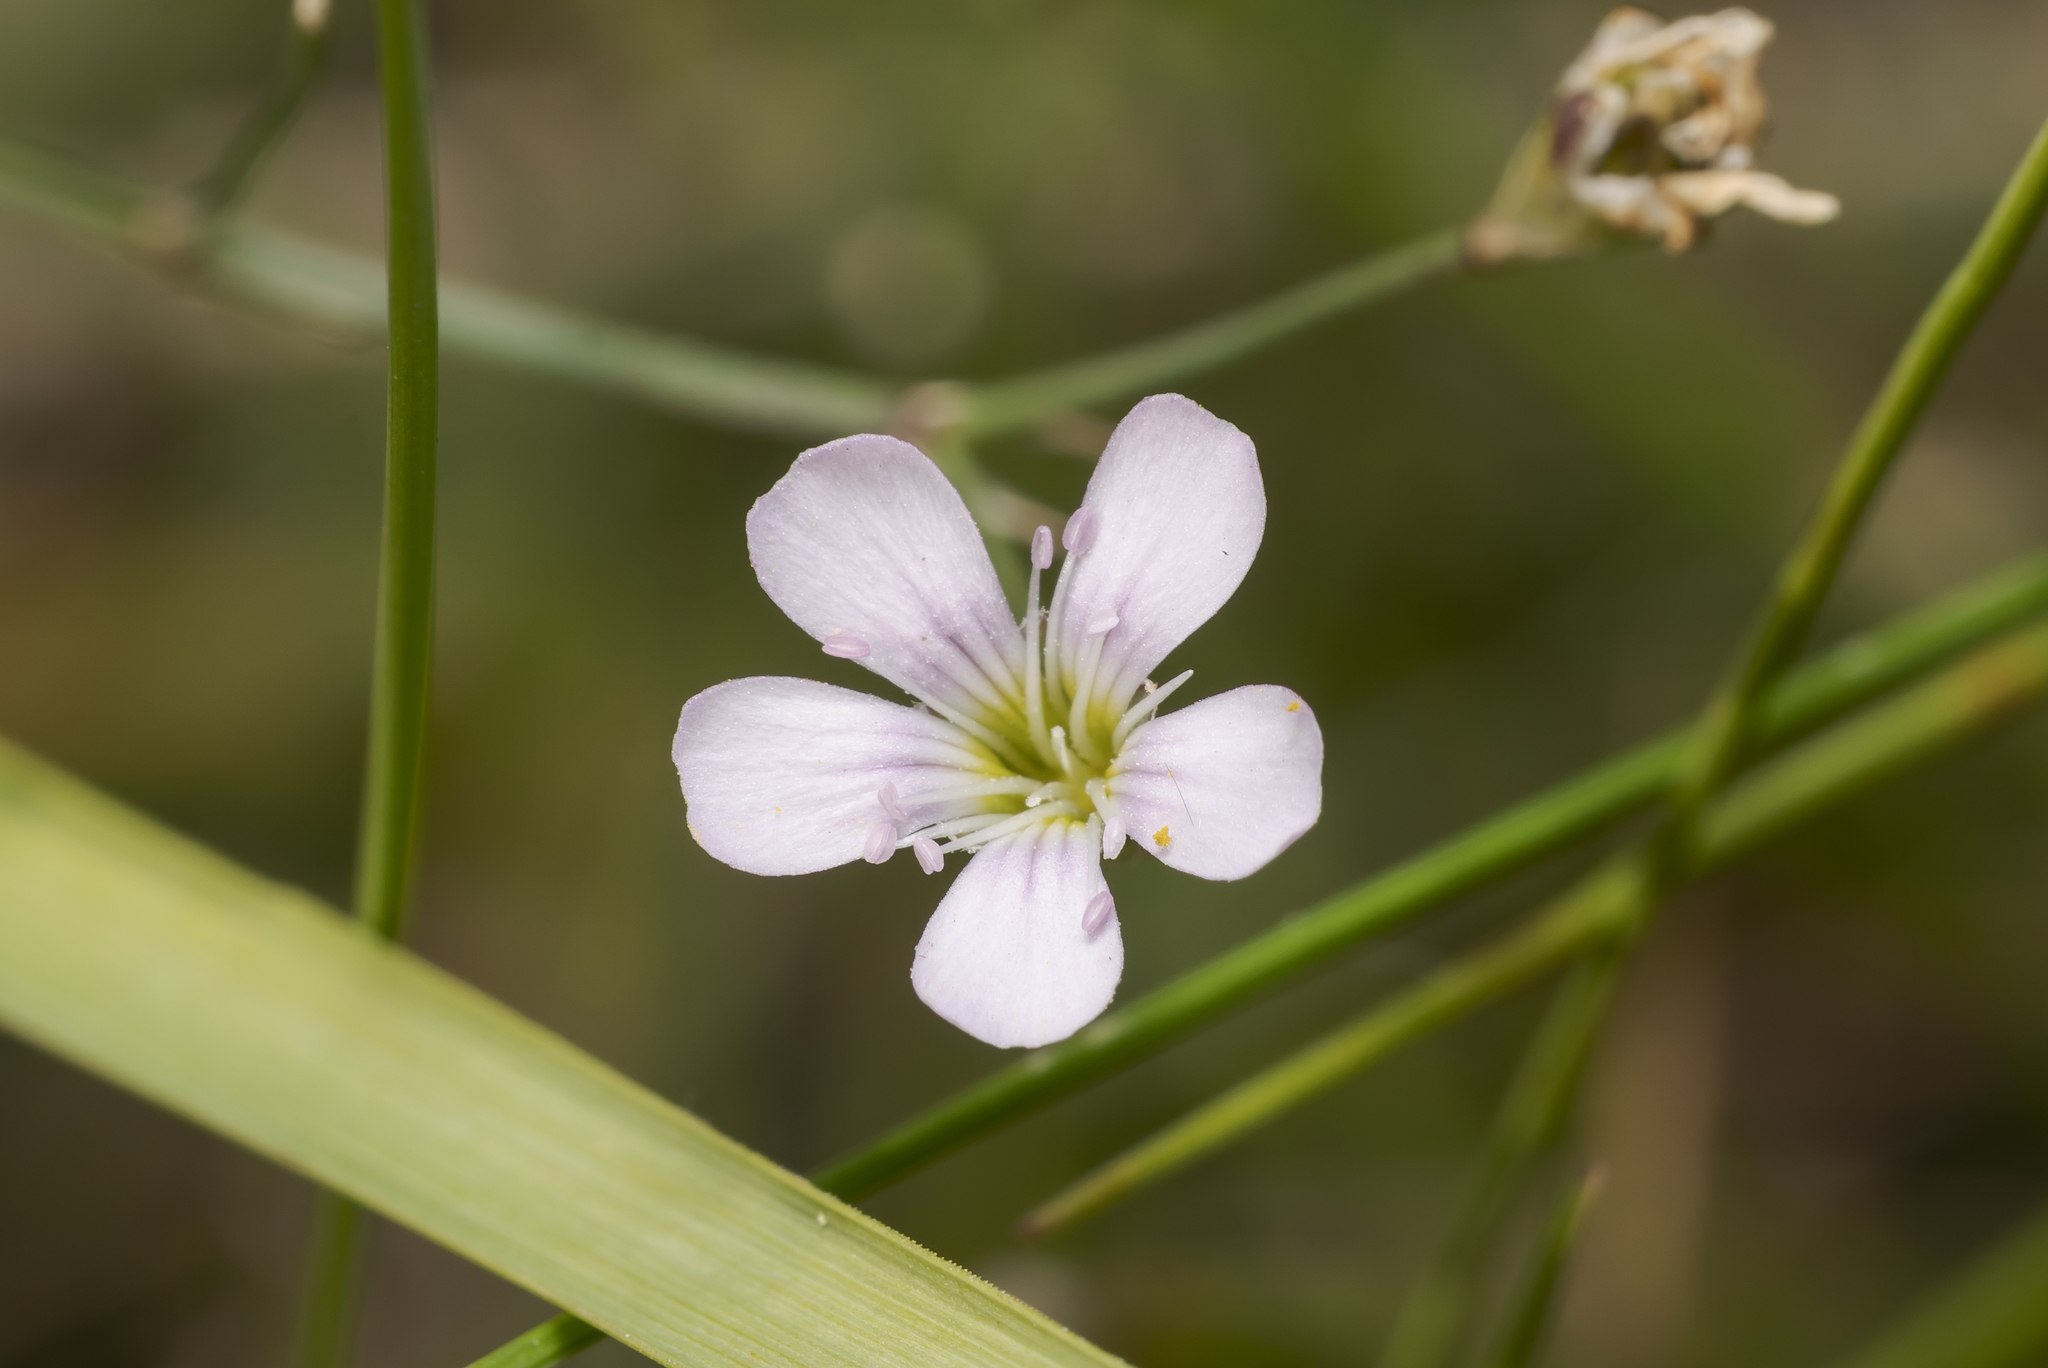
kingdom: Plantae
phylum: Tracheophyta
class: Magnoliopsida
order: Caryophyllales
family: Caryophyllaceae
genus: Petrorhagia
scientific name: Petrorhagia saxifraga
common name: Tunicflower
